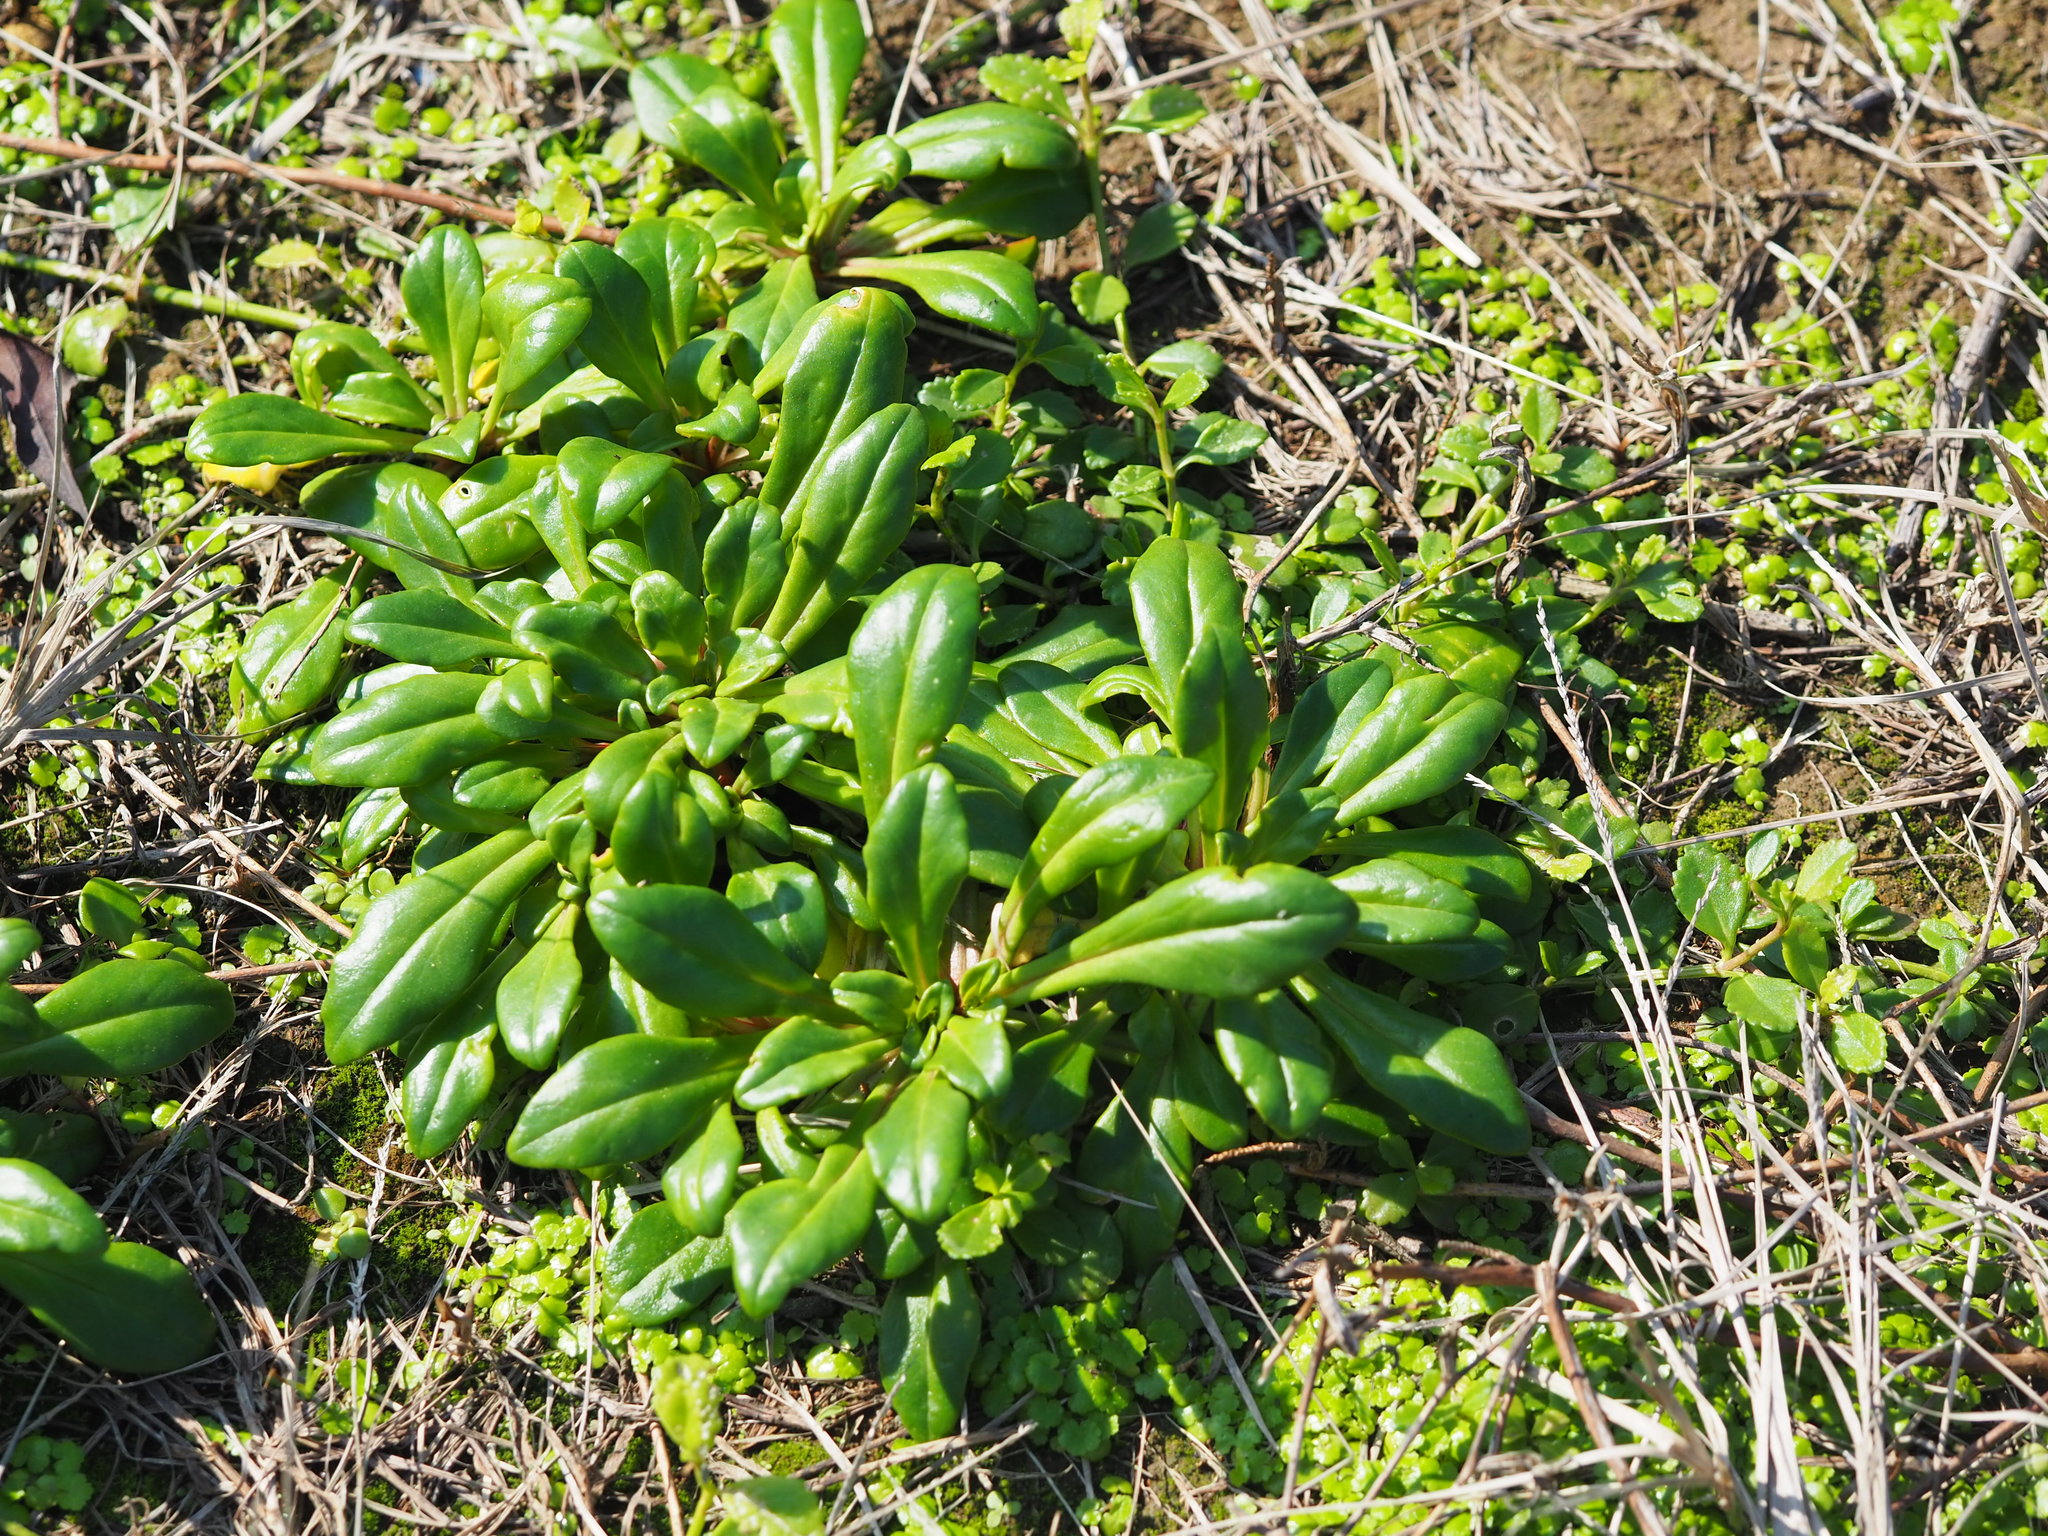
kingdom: Plantae
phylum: Tracheophyta
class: Magnoliopsida
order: Ericales
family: Primulaceae
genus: Lysimachia
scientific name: Lysimachia mauritiana
